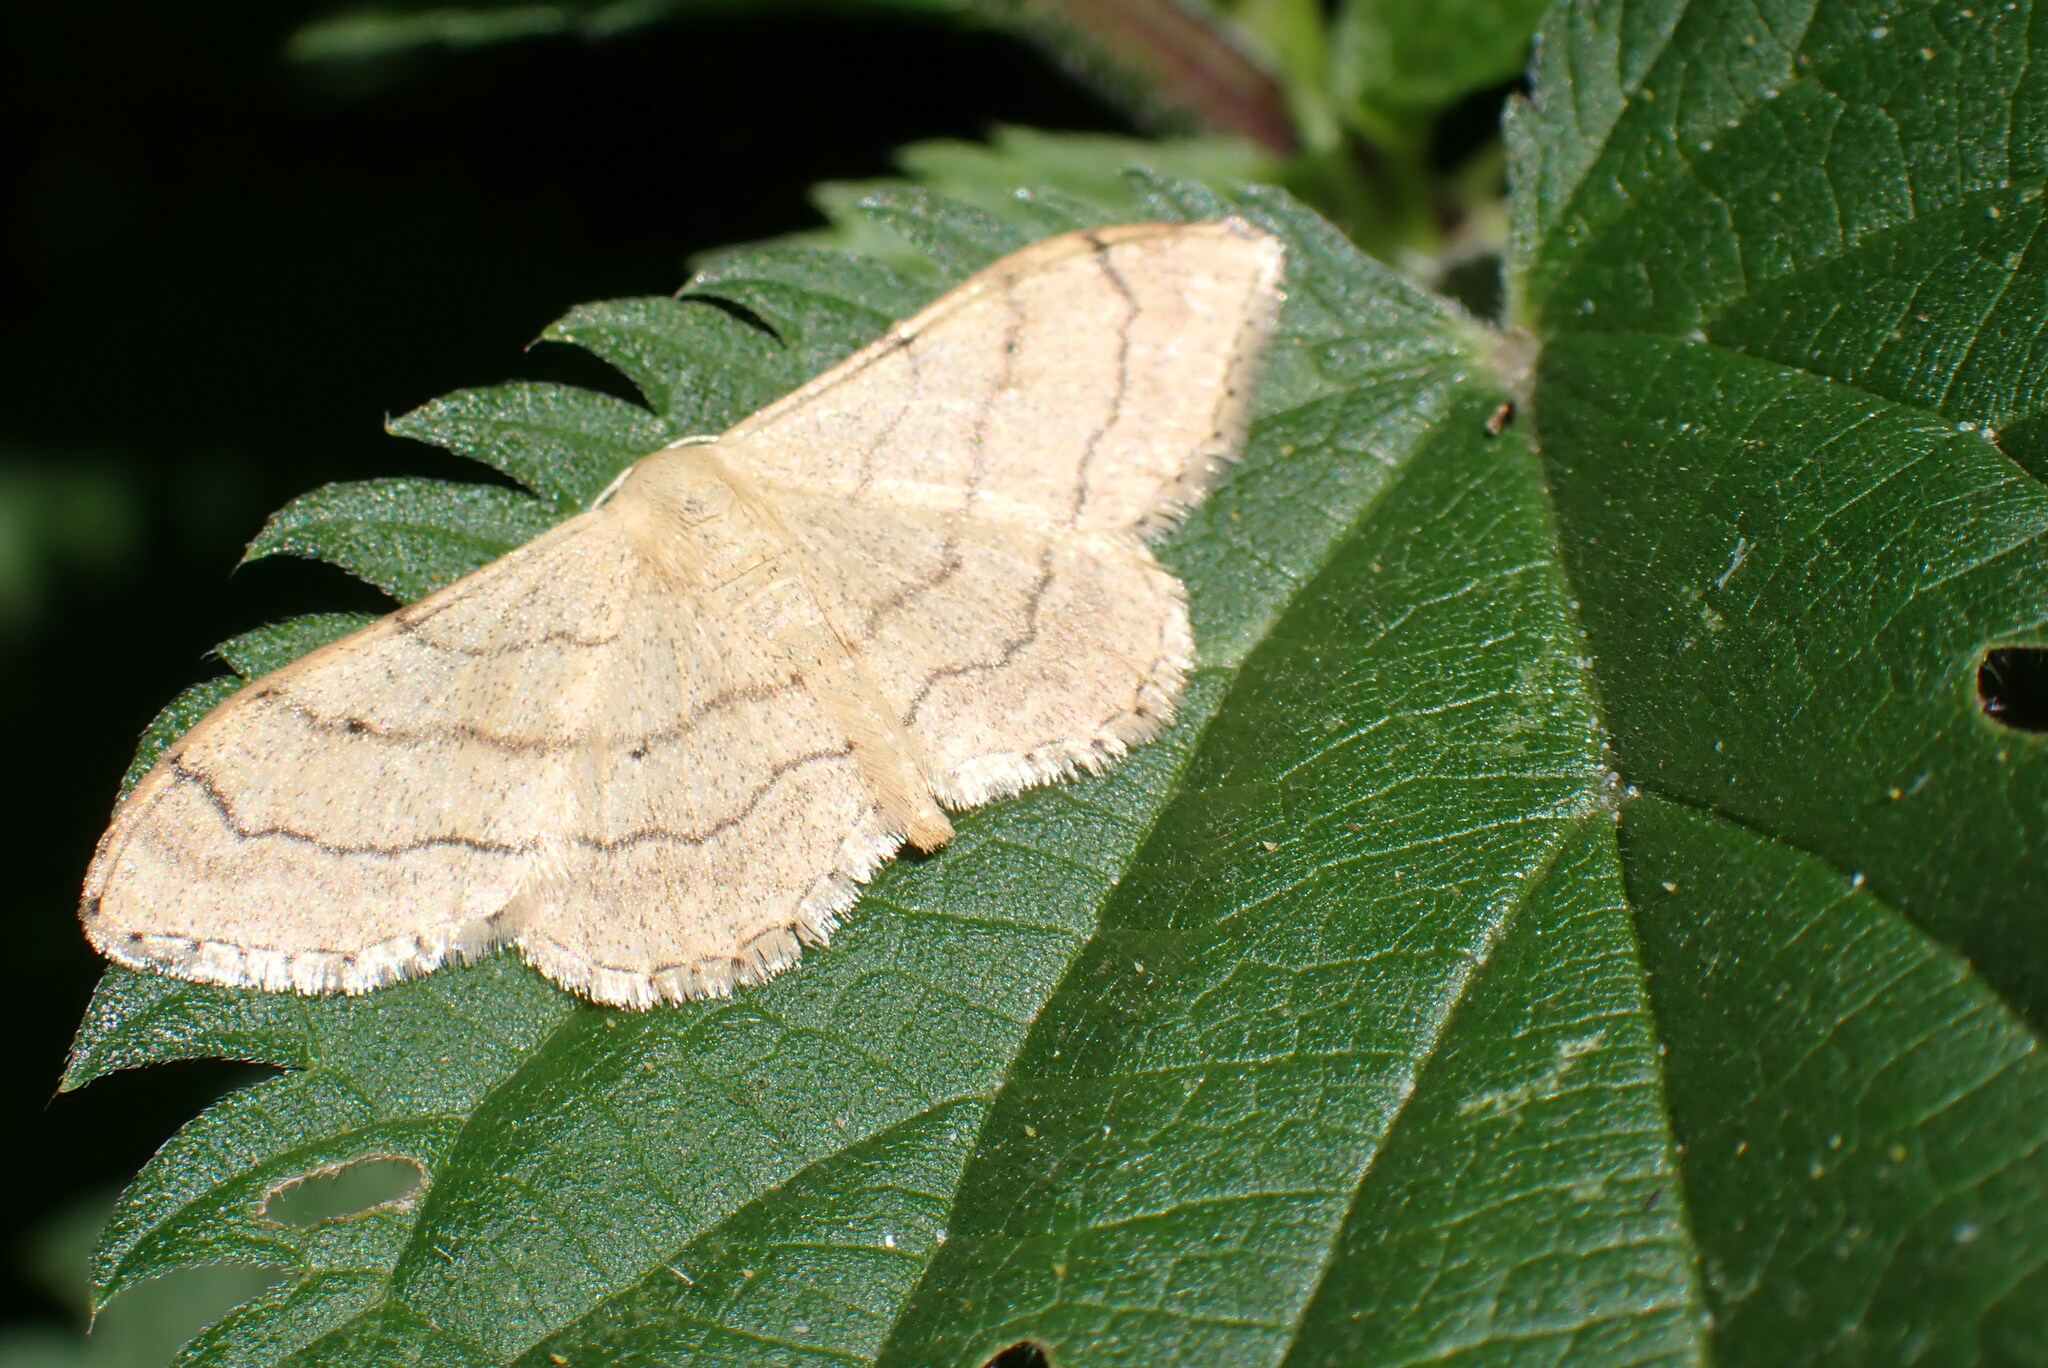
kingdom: Animalia
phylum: Arthropoda
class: Insecta
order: Lepidoptera
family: Geometridae
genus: Idaea
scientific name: Idaea aversata
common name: Riband wave
